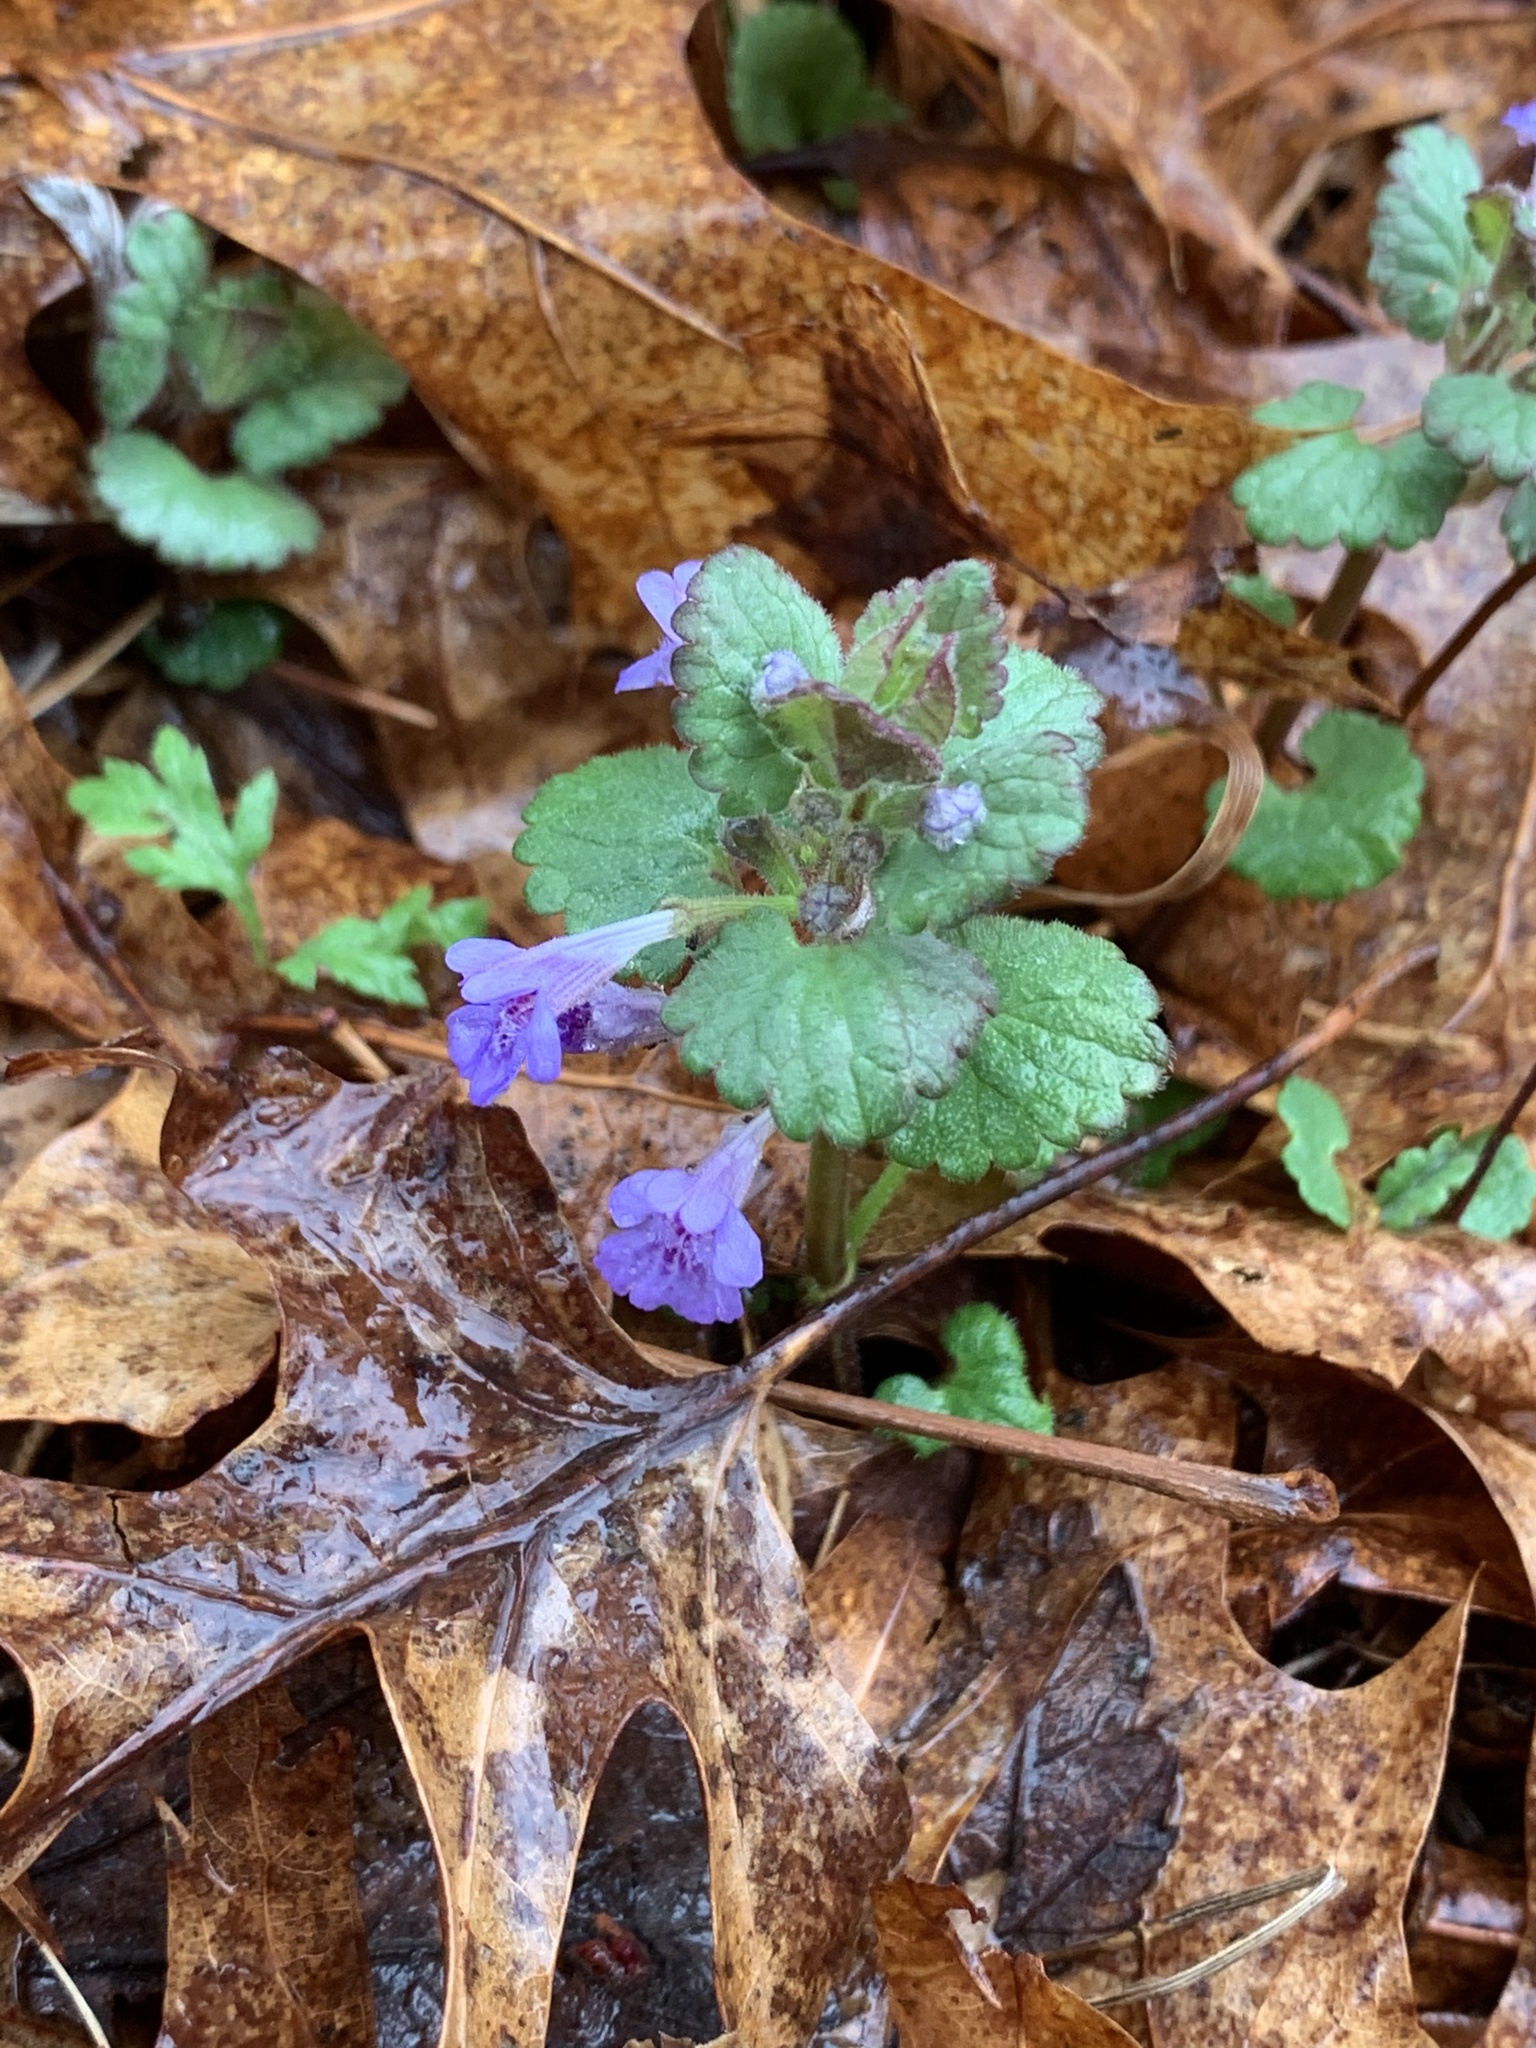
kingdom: Plantae
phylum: Tracheophyta
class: Magnoliopsida
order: Lamiales
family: Lamiaceae
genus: Glechoma
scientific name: Glechoma hederacea
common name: Ground ivy
